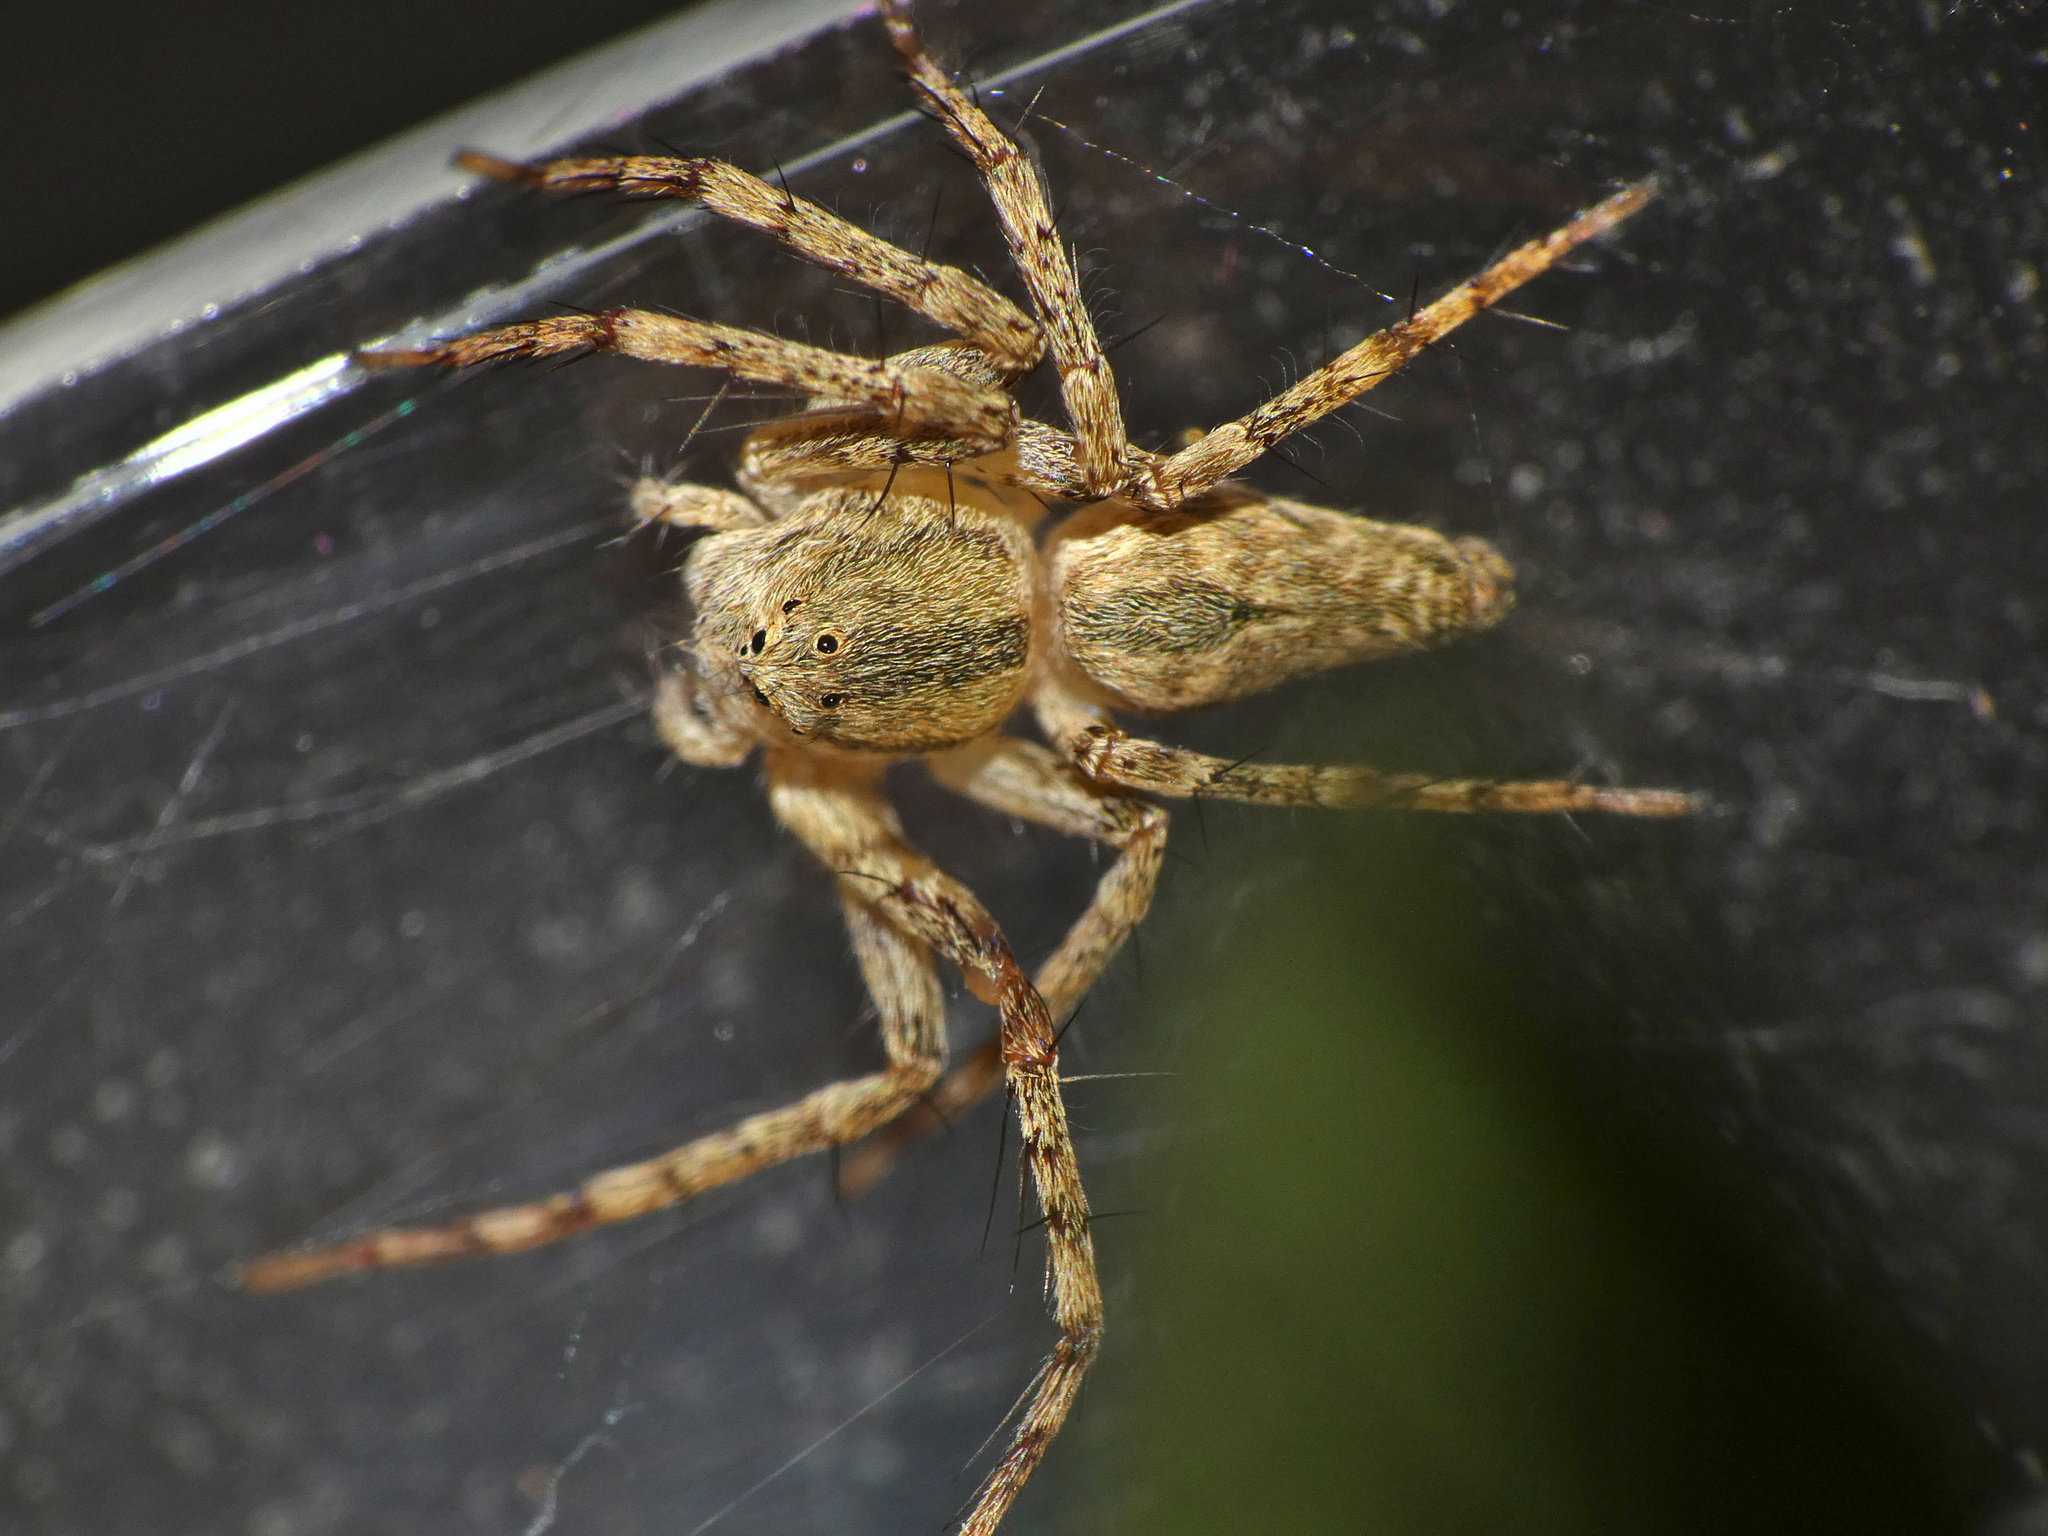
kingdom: Animalia
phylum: Arthropoda
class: Arachnida
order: Araneae
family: Oxyopidae
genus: Oxyopes
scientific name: Oxyopes schenkeli
